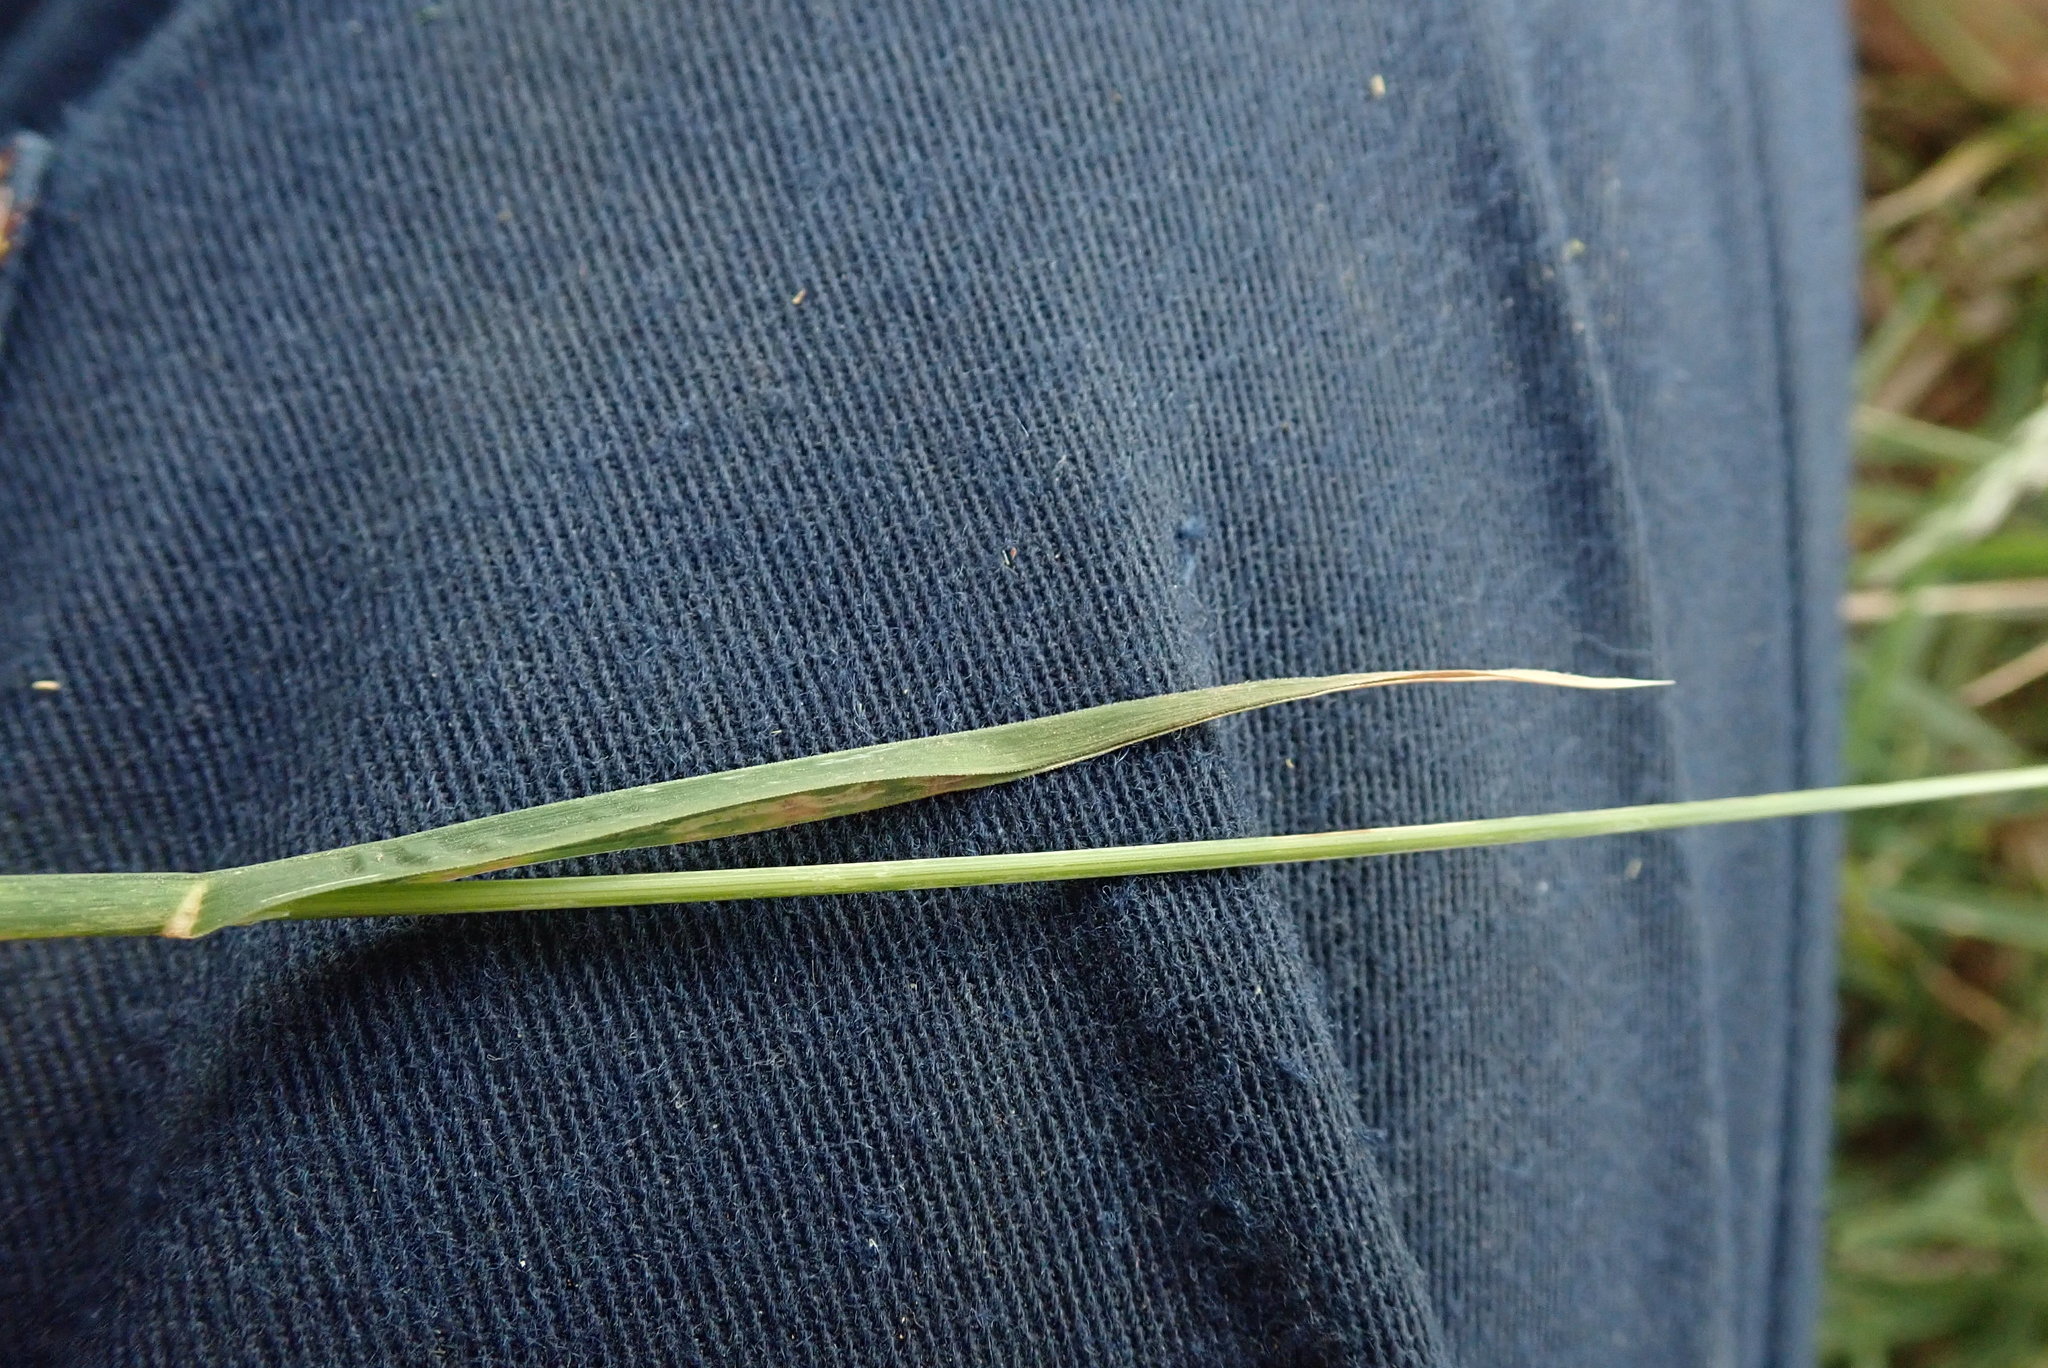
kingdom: Plantae
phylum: Tracheophyta
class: Liliopsida
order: Poales
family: Poaceae
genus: Dactylis
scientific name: Dactylis glomerata
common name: Orchardgrass
